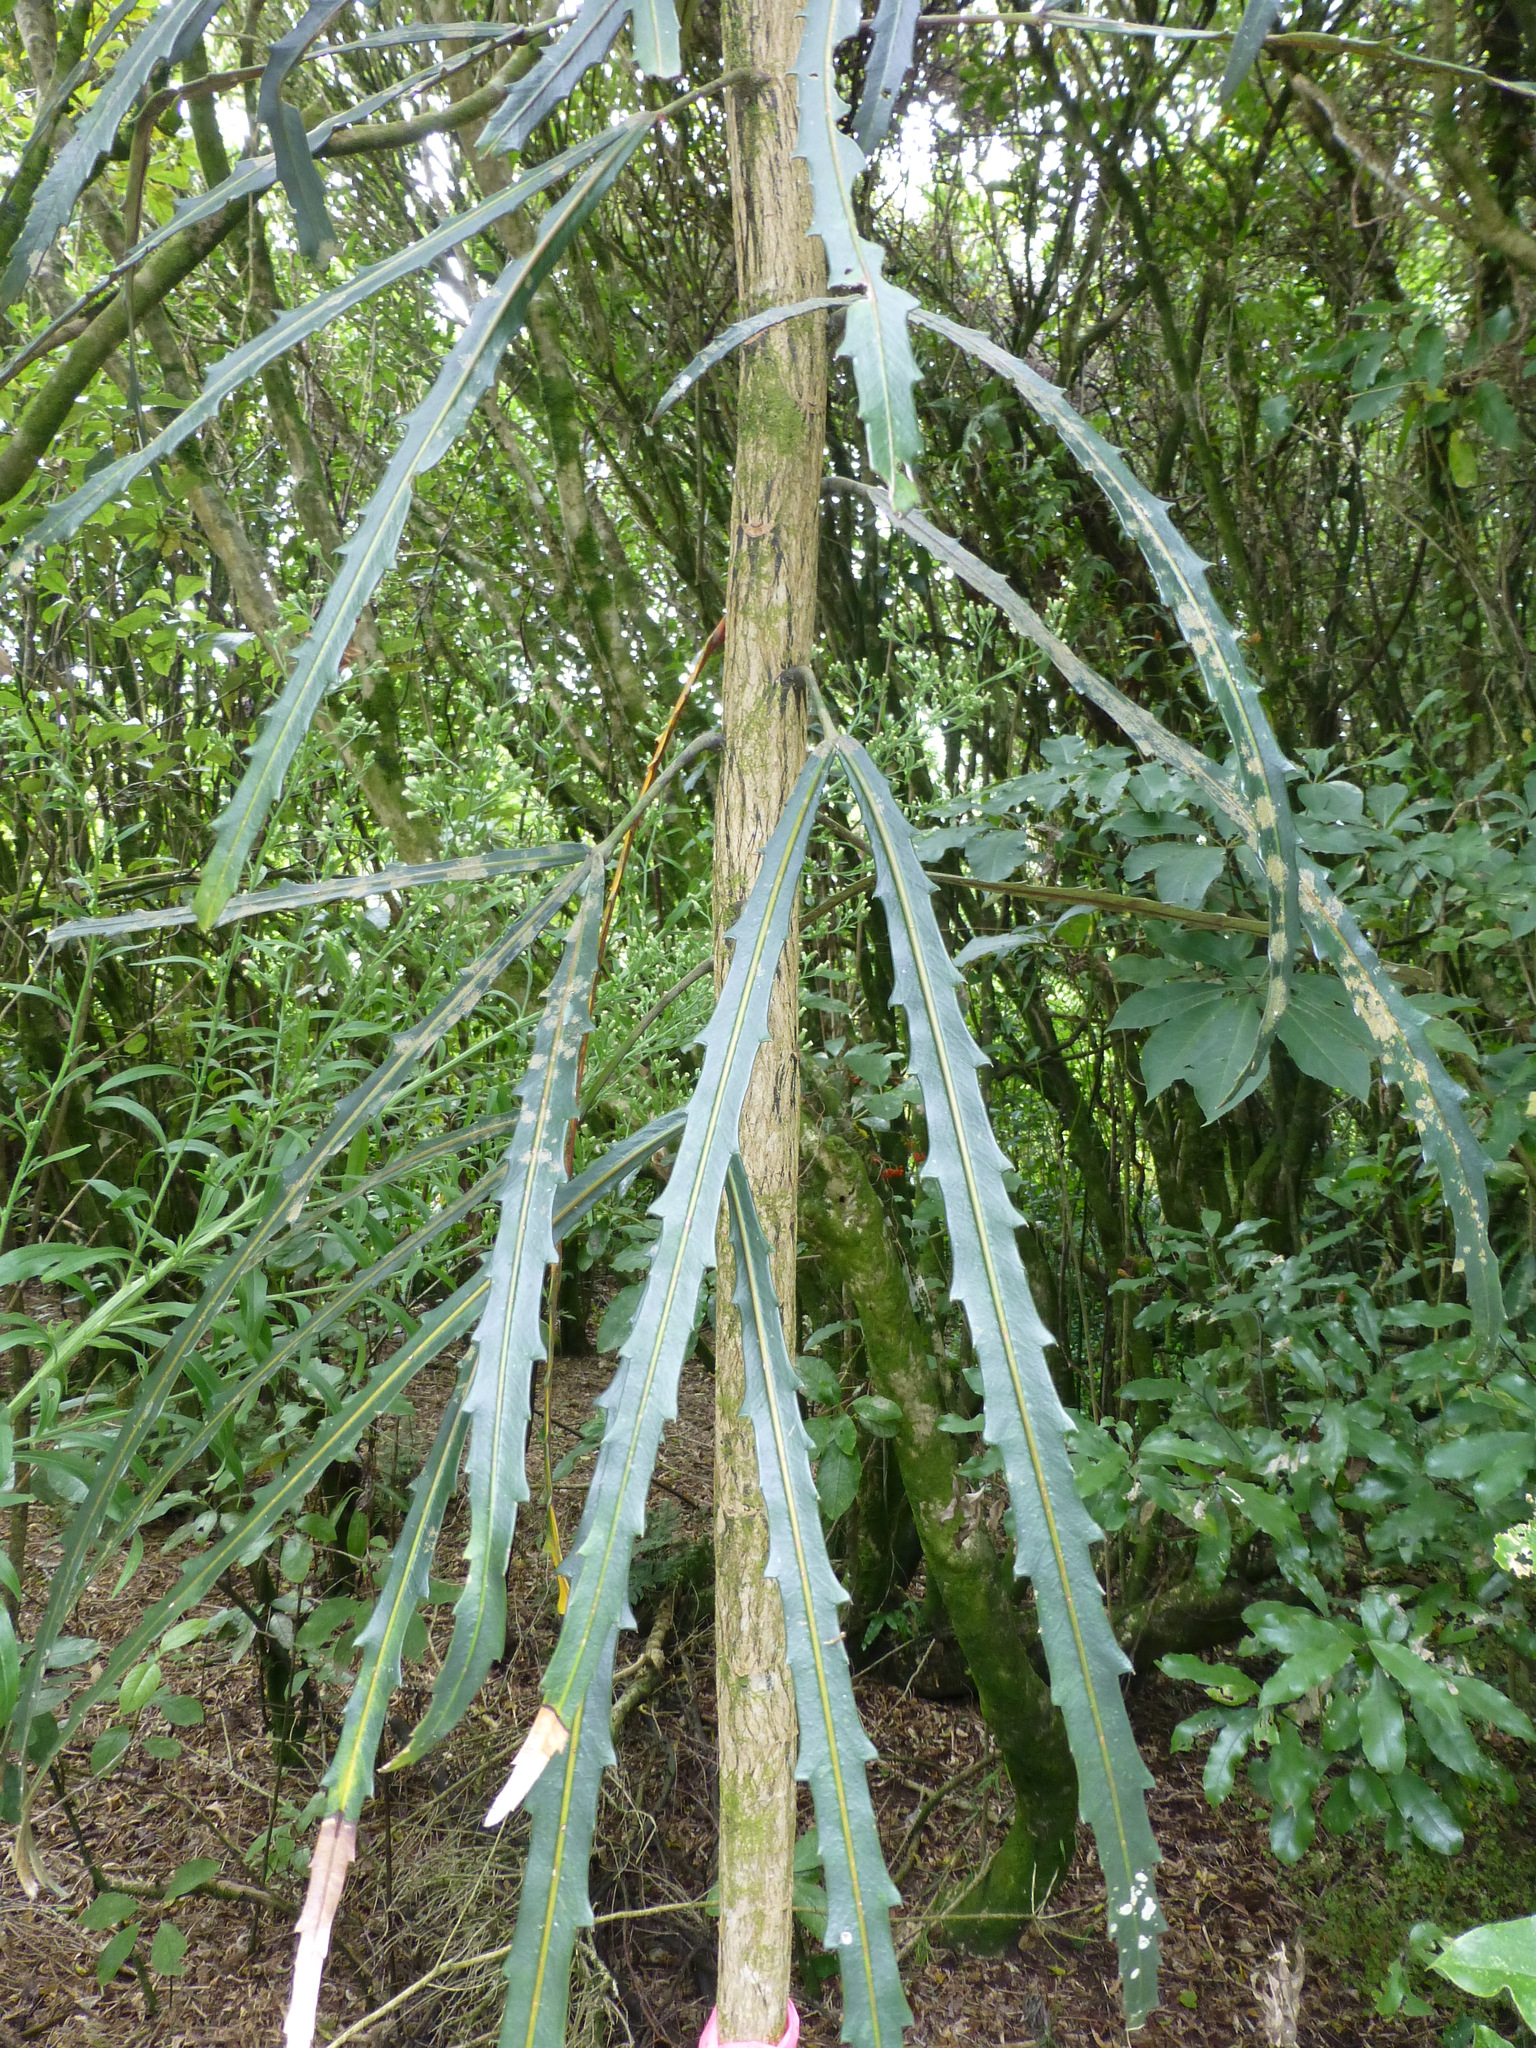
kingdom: Plantae
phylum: Tracheophyta
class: Magnoliopsida
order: Apiales
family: Araliaceae
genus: Pseudopanax
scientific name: Pseudopanax
